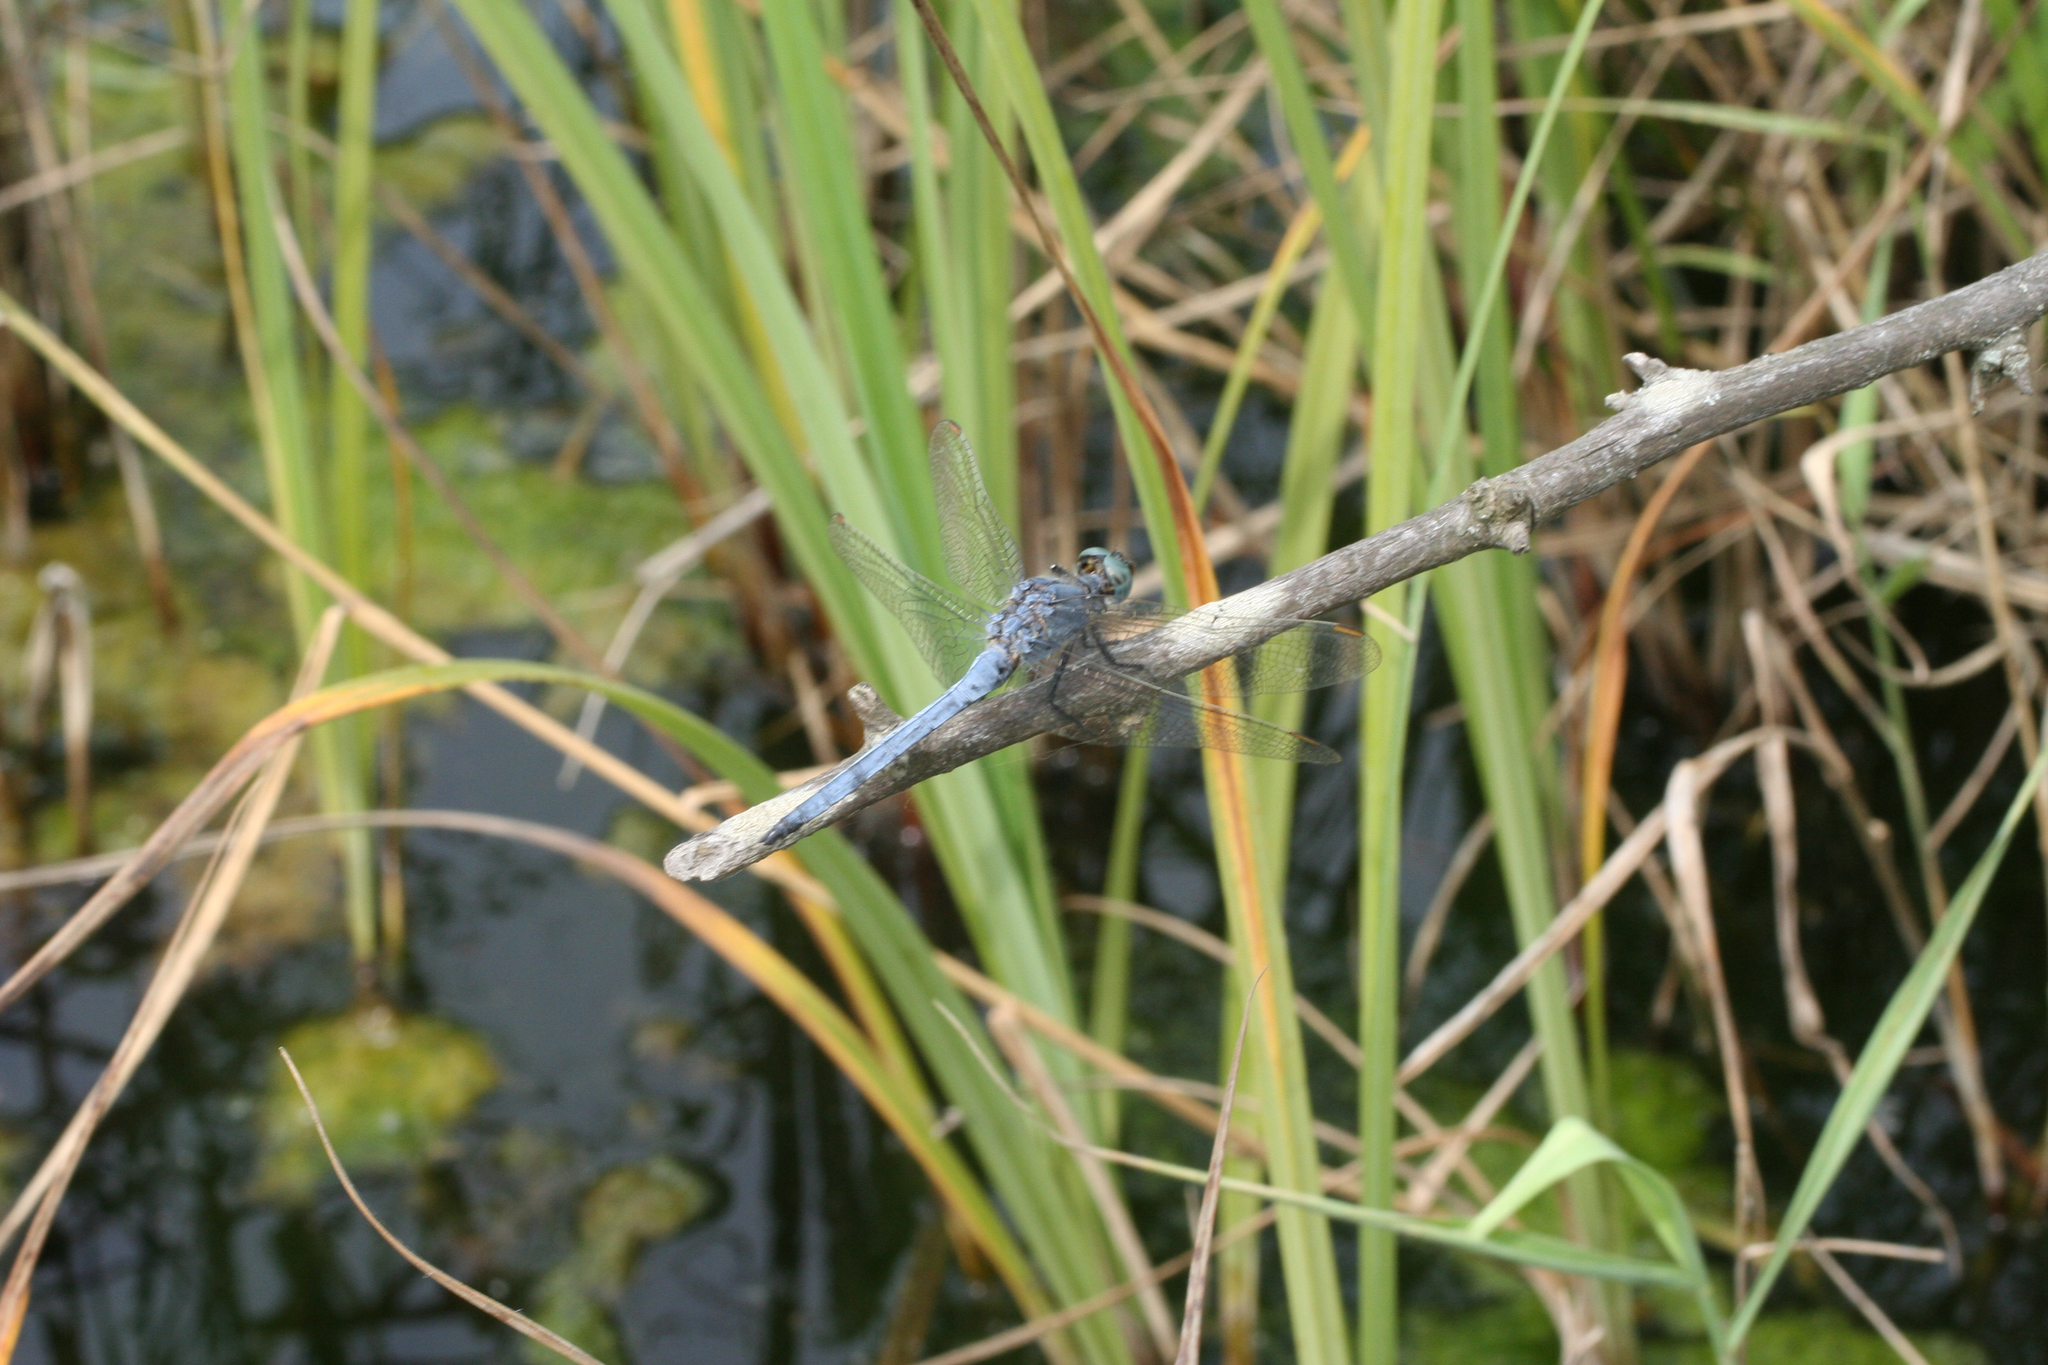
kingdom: Animalia
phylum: Arthropoda
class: Insecta
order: Odonata
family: Libellulidae
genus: Orthetrum
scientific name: Orthetrum coerulescens
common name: Keeled skimmer
